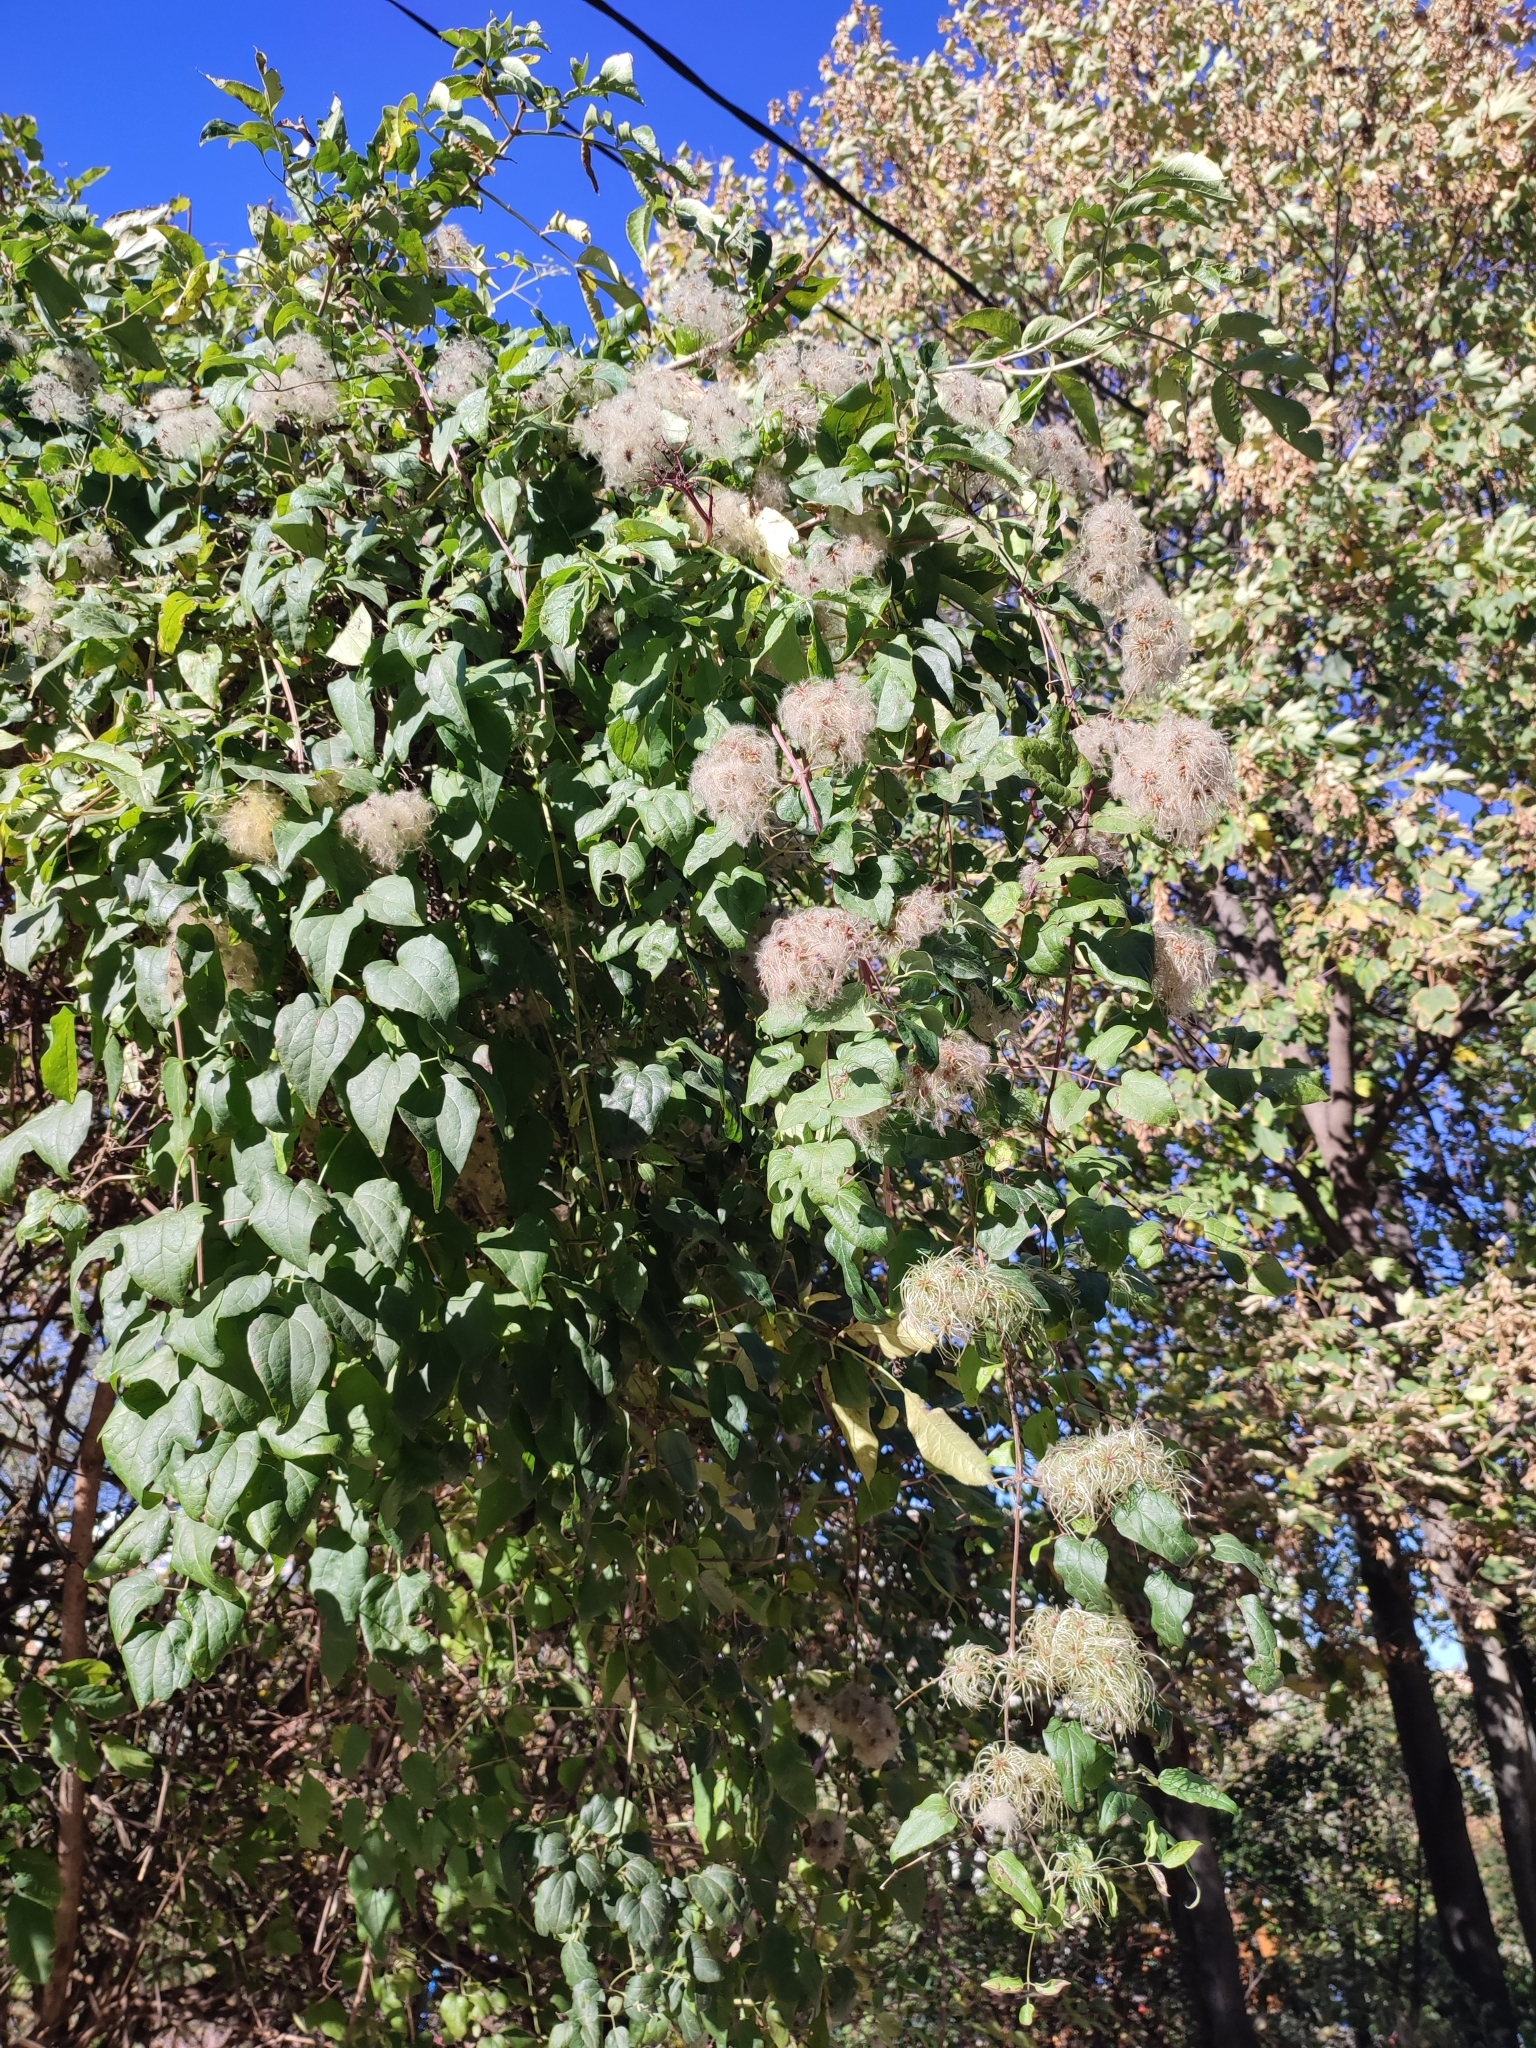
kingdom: Plantae
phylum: Tracheophyta
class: Magnoliopsida
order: Ranunculales
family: Ranunculaceae
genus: Clematis
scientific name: Clematis vitalba
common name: Evergreen clematis
